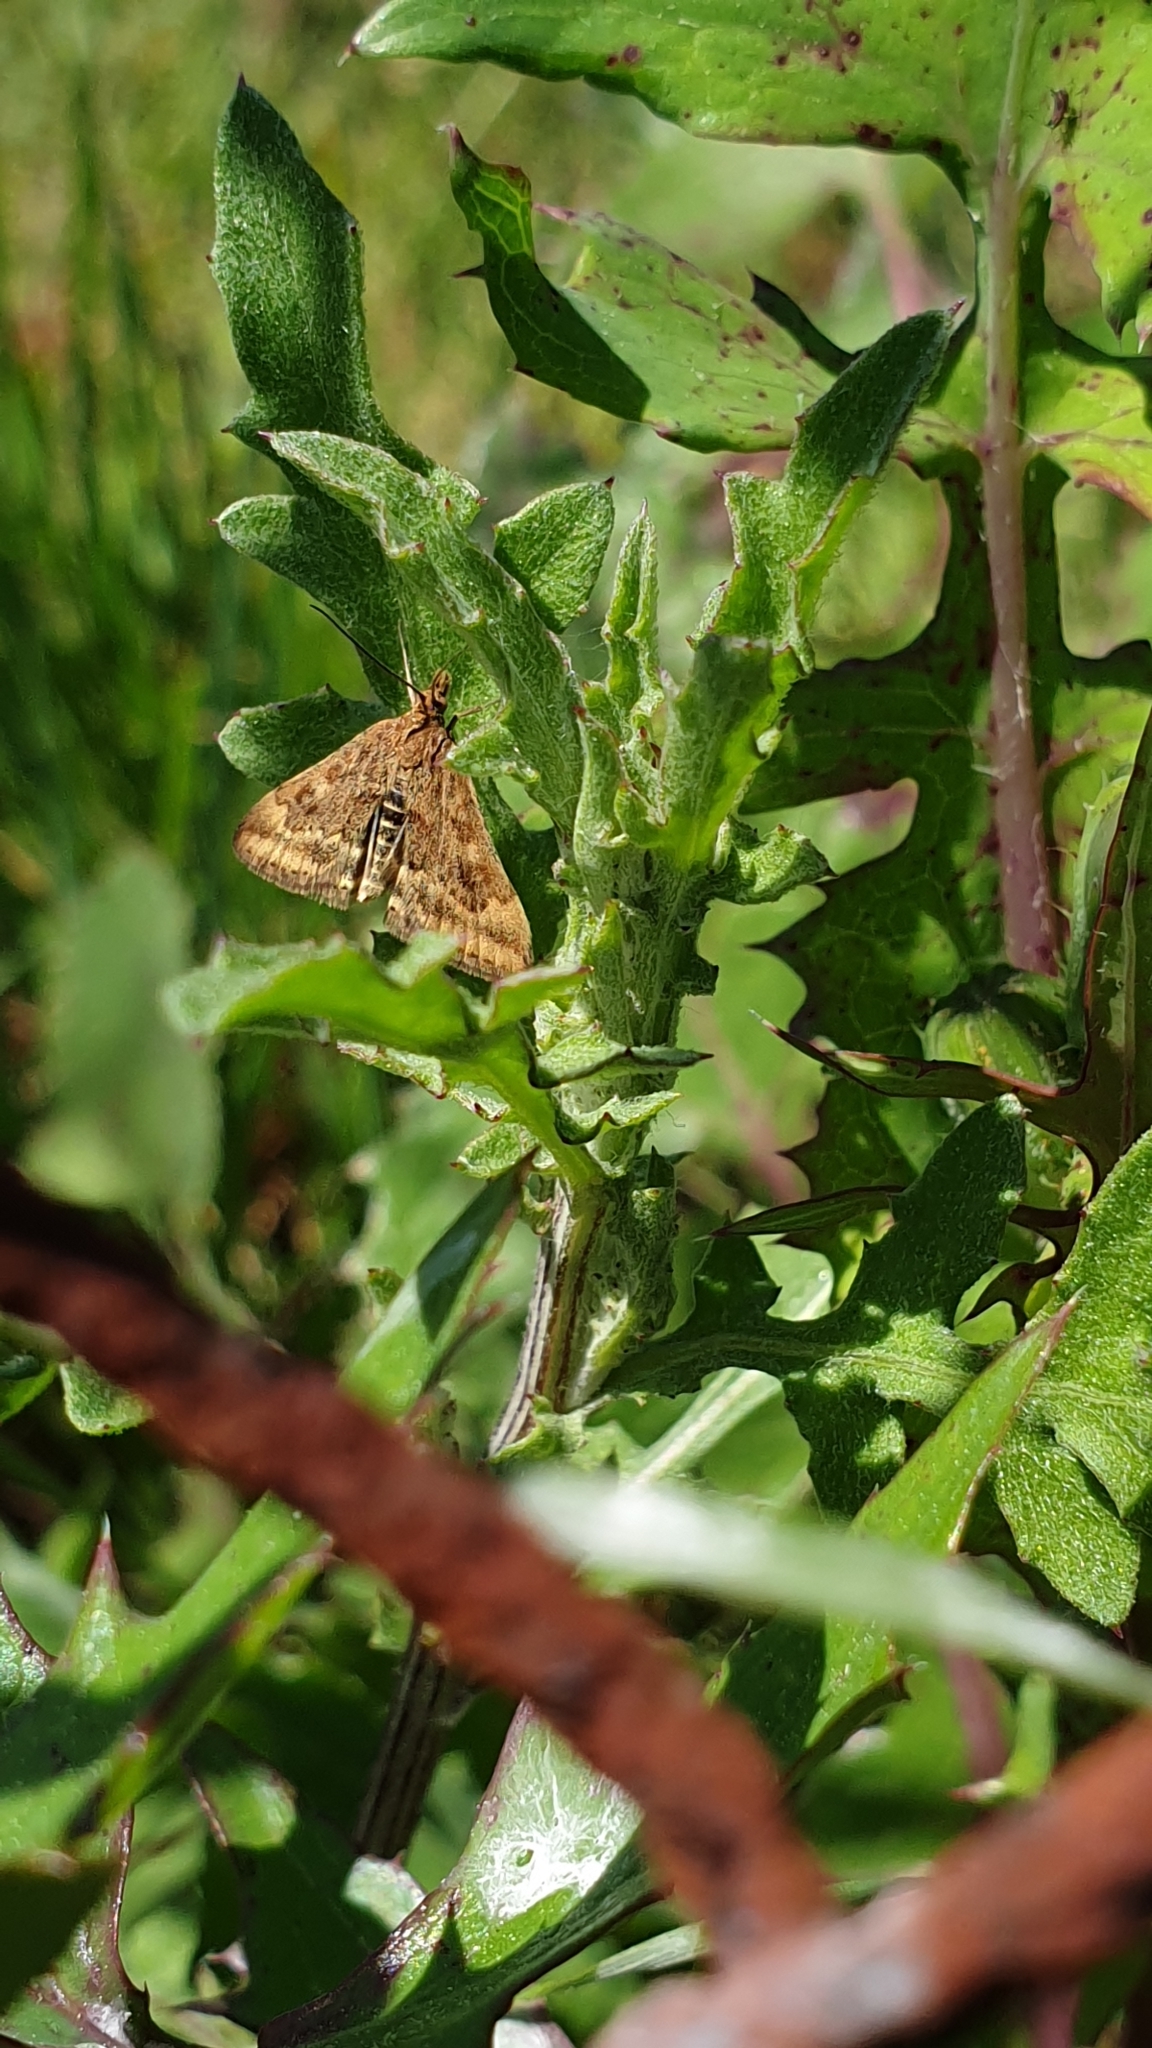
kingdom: Animalia
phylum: Arthropoda
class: Insecta
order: Lepidoptera
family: Crambidae
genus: Pyrausta
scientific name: Pyrausta despicata
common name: Straw-barred pearl
